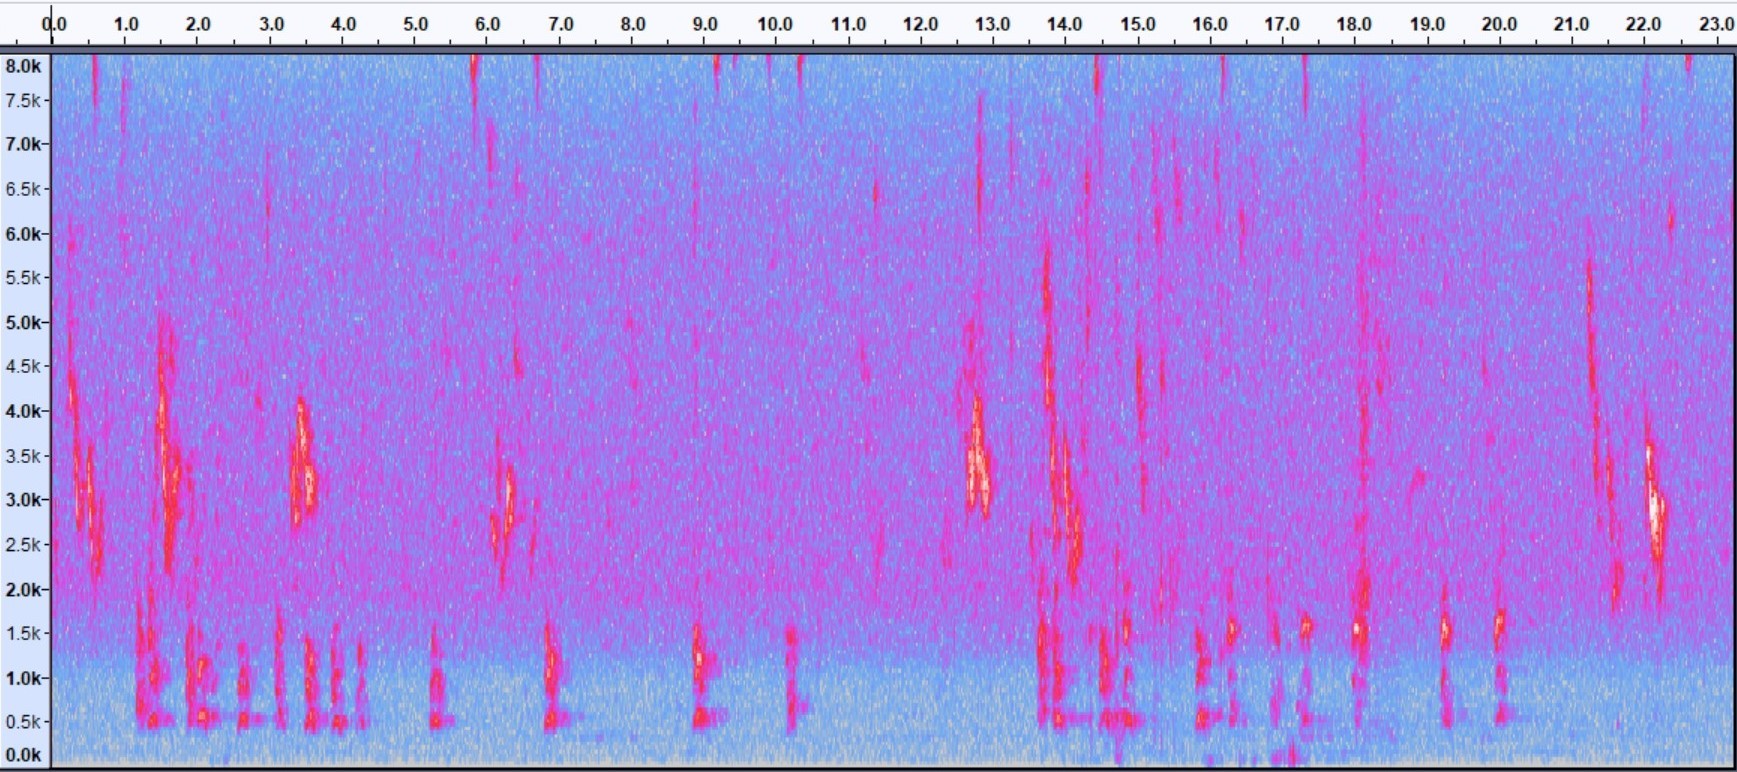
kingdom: Animalia
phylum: Chordata
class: Aves
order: Passeriformes
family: Vireonidae
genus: Vireo
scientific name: Vireo flavifrons
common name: Yellow-throated vireo
